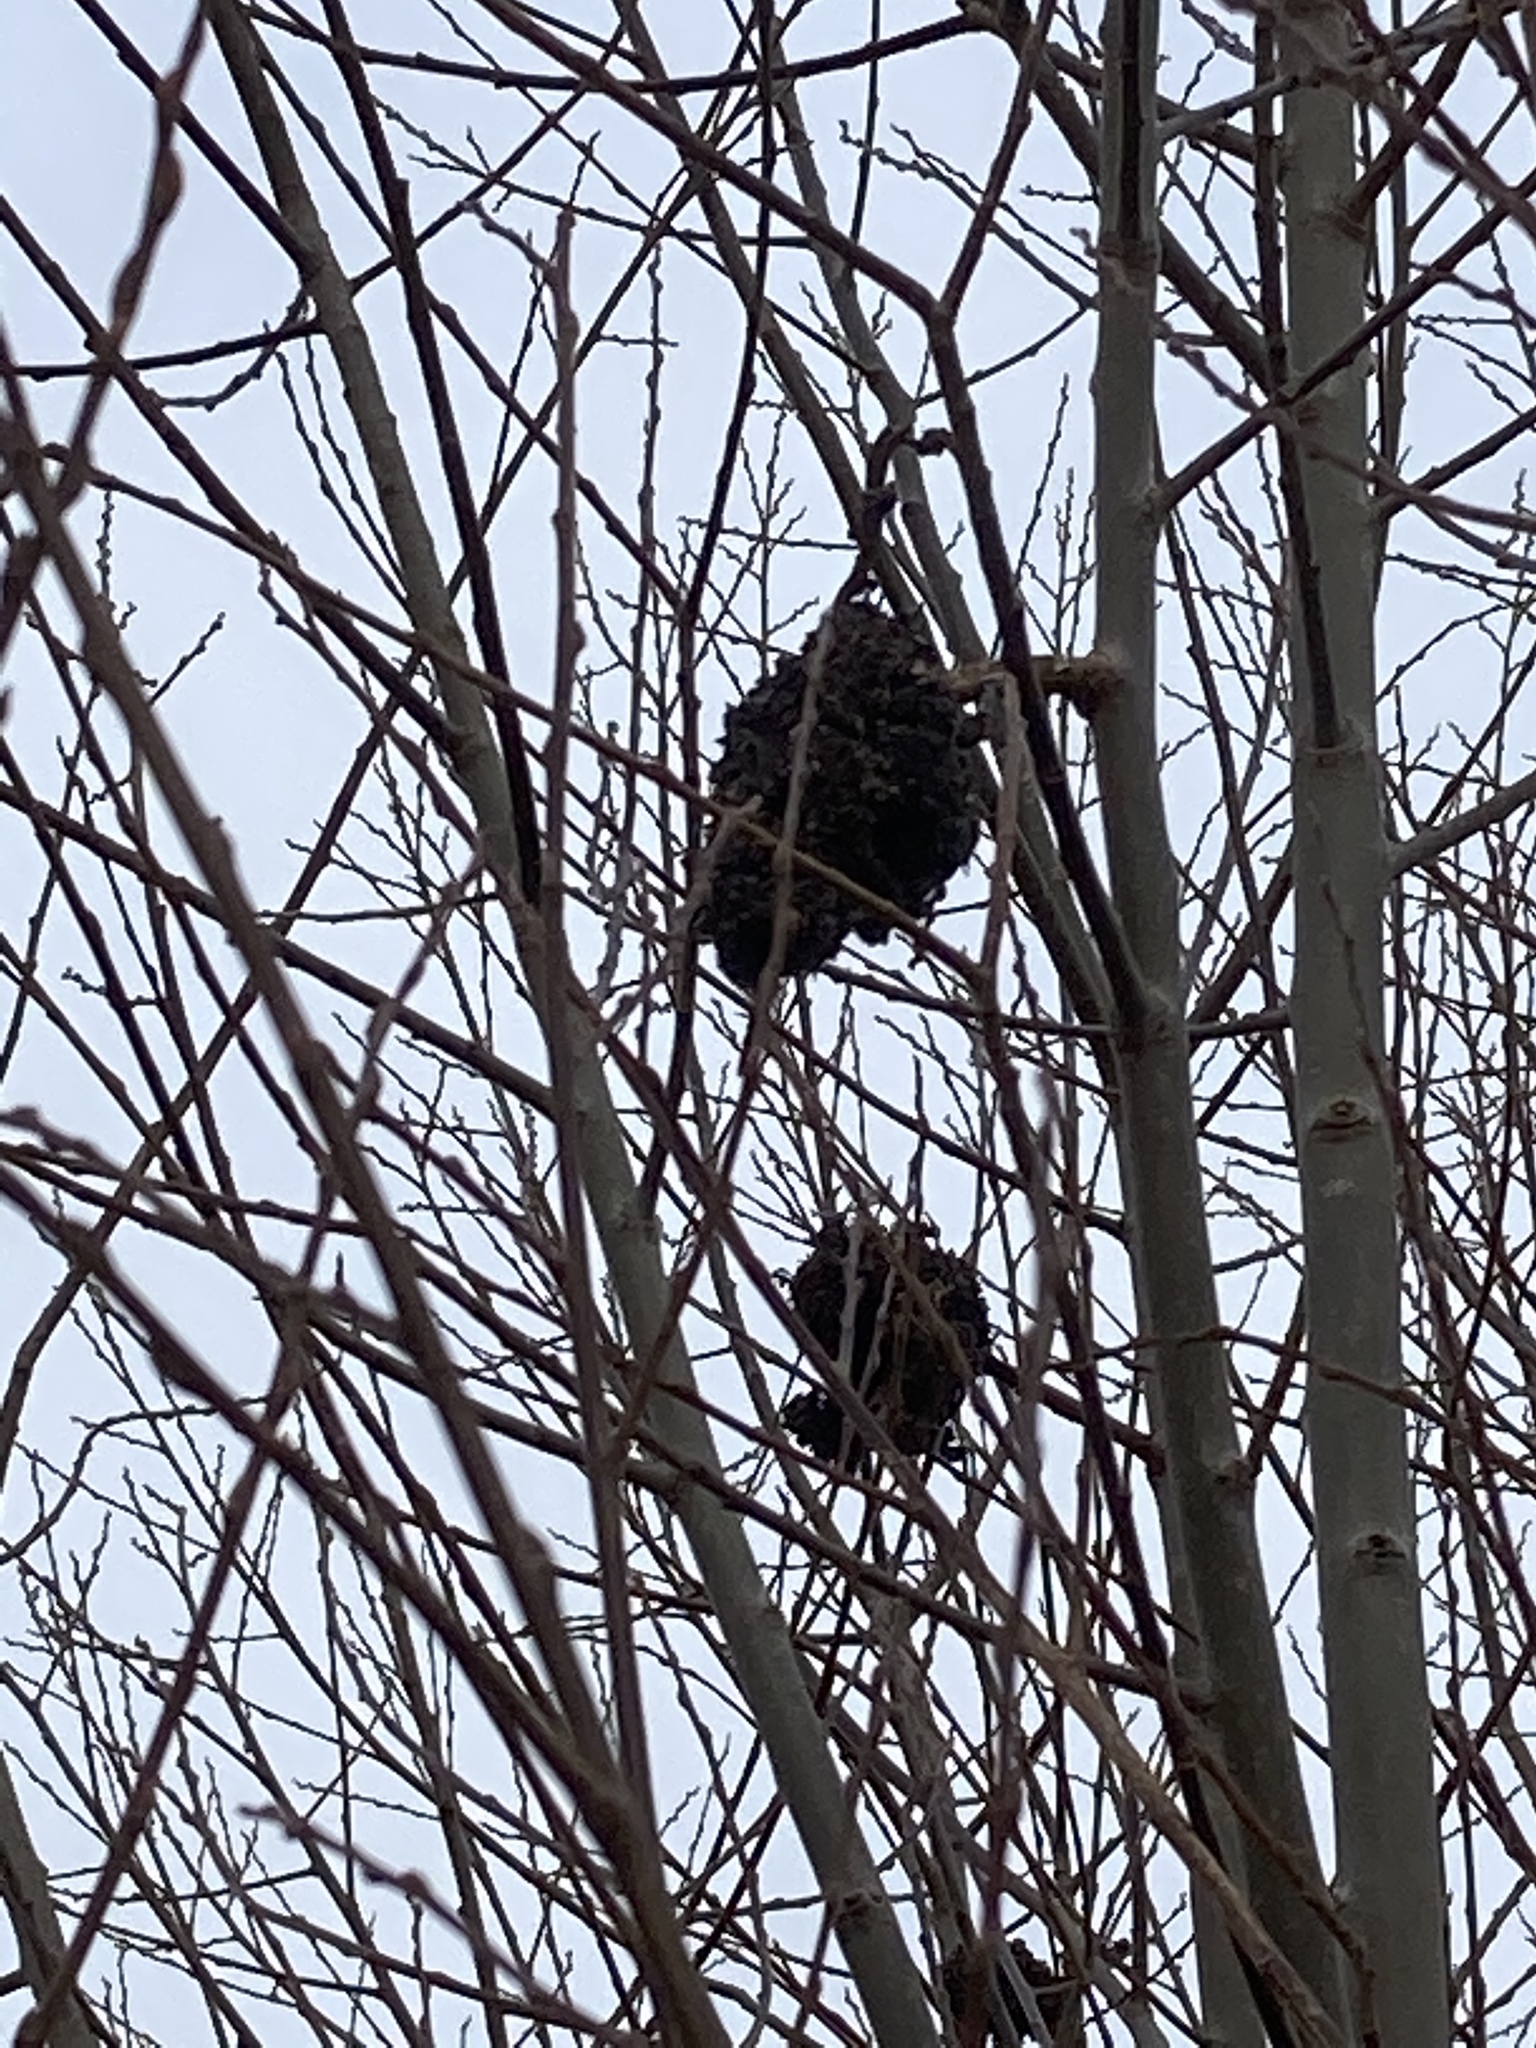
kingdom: Animalia
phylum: Arthropoda
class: Arachnida
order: Trombidiformes
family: Eriophyidae
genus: Stenacis
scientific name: Stenacis triradiatus
